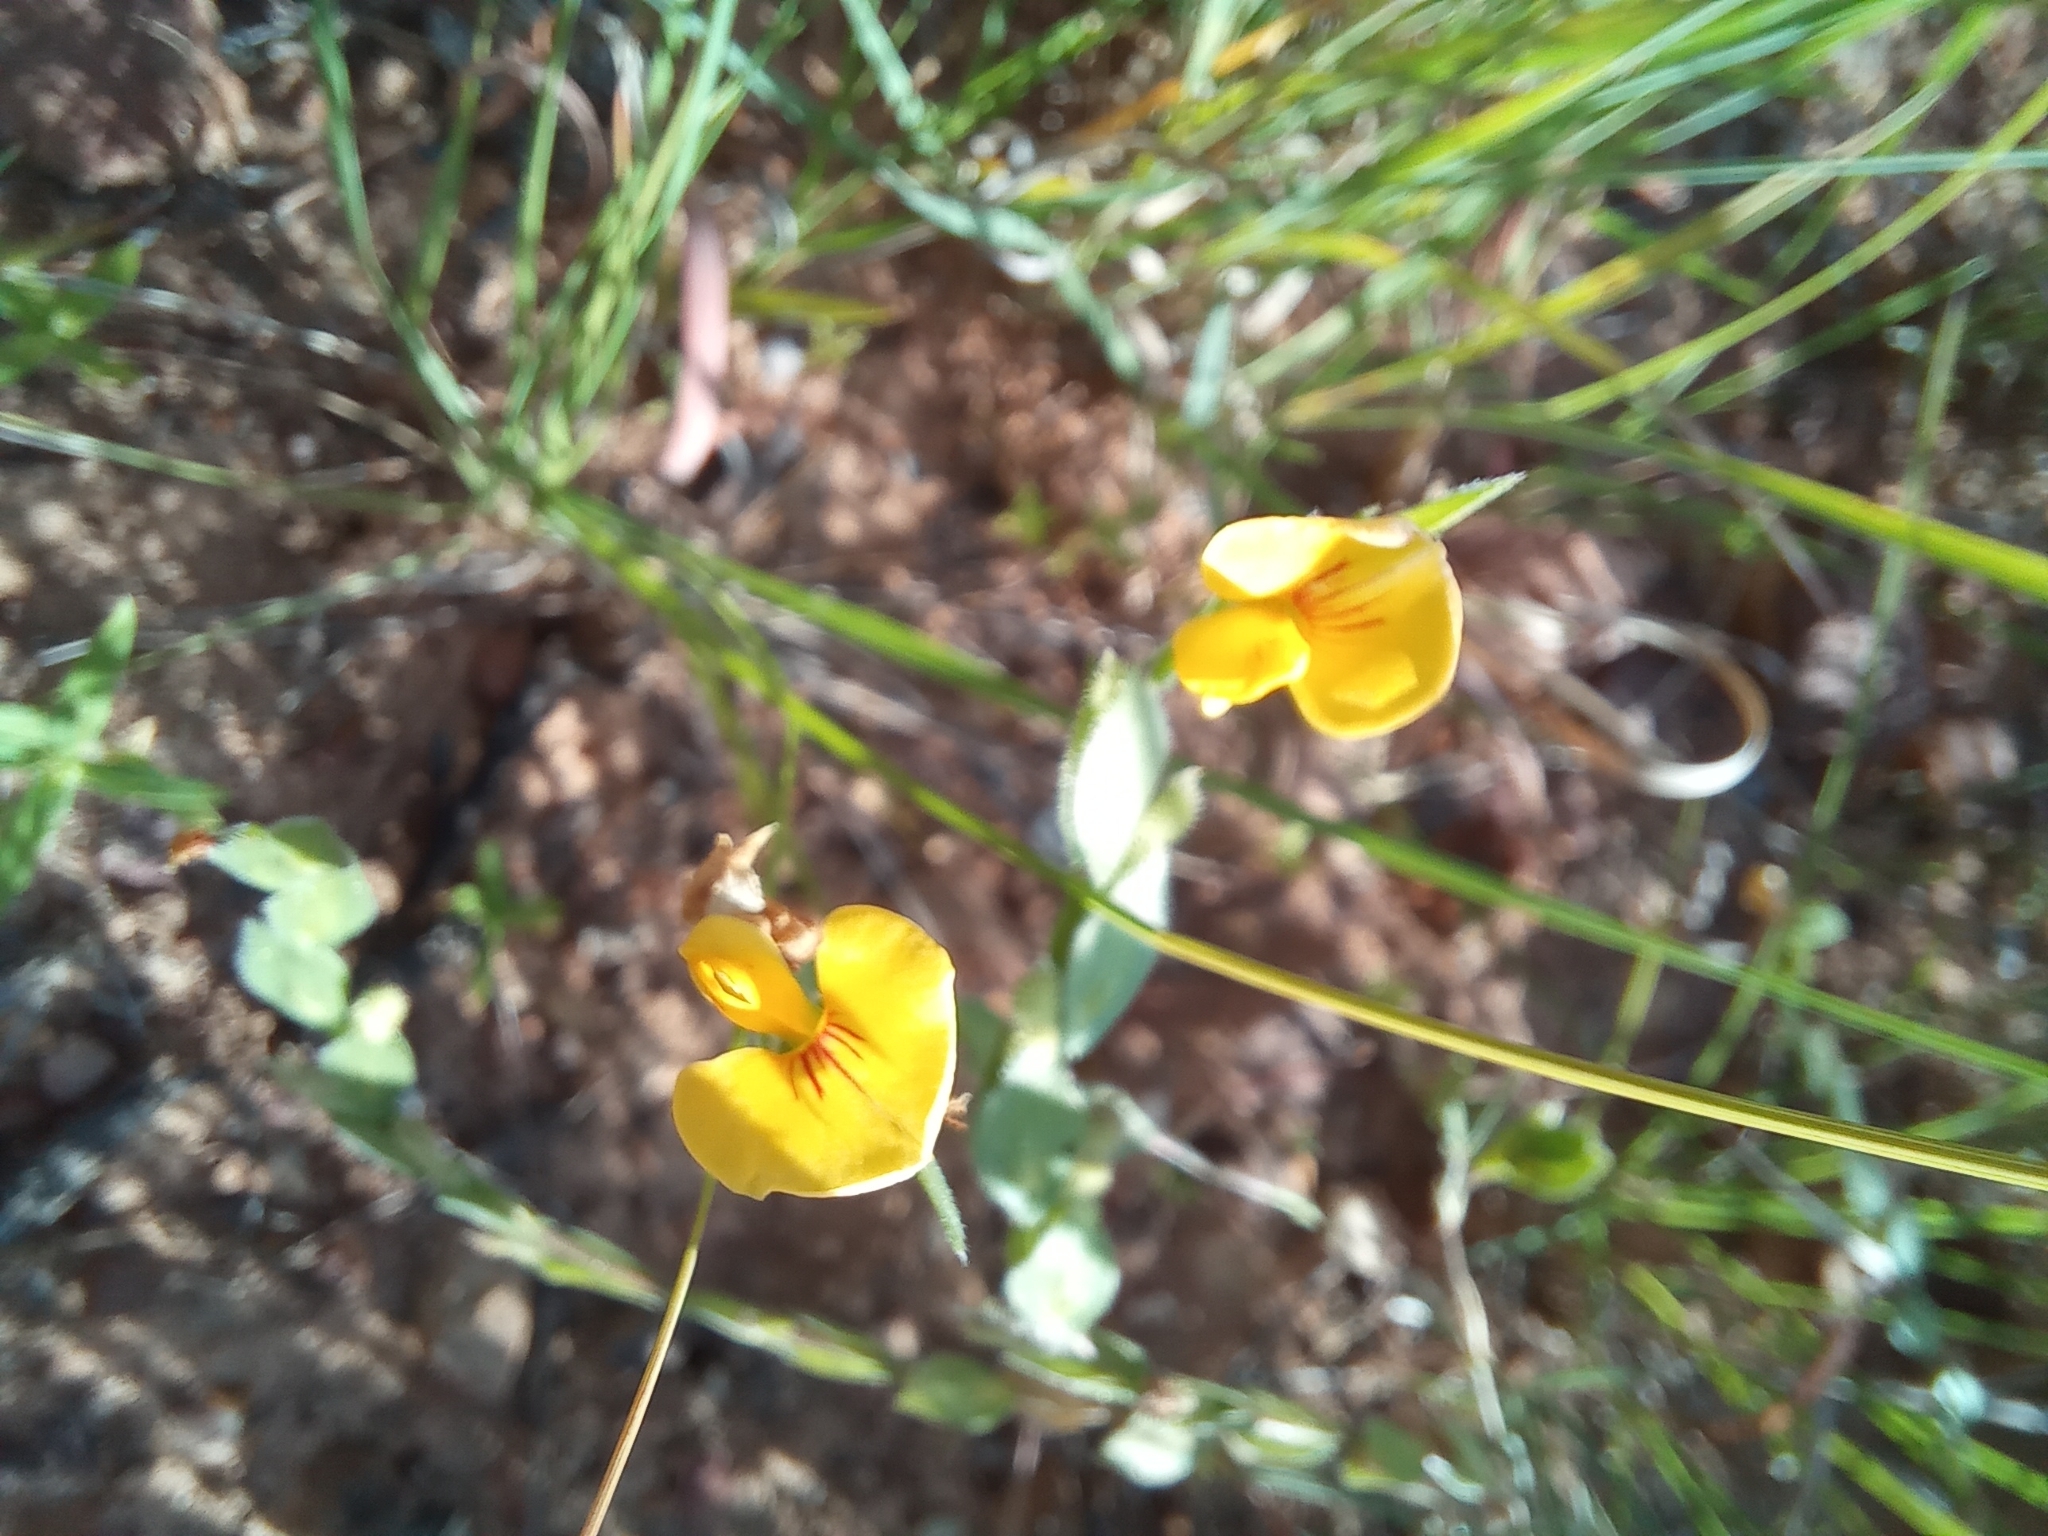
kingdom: Plantae
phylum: Tracheophyta
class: Magnoliopsida
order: Fabales
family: Fabaceae
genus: Zornia
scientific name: Zornia linearis
